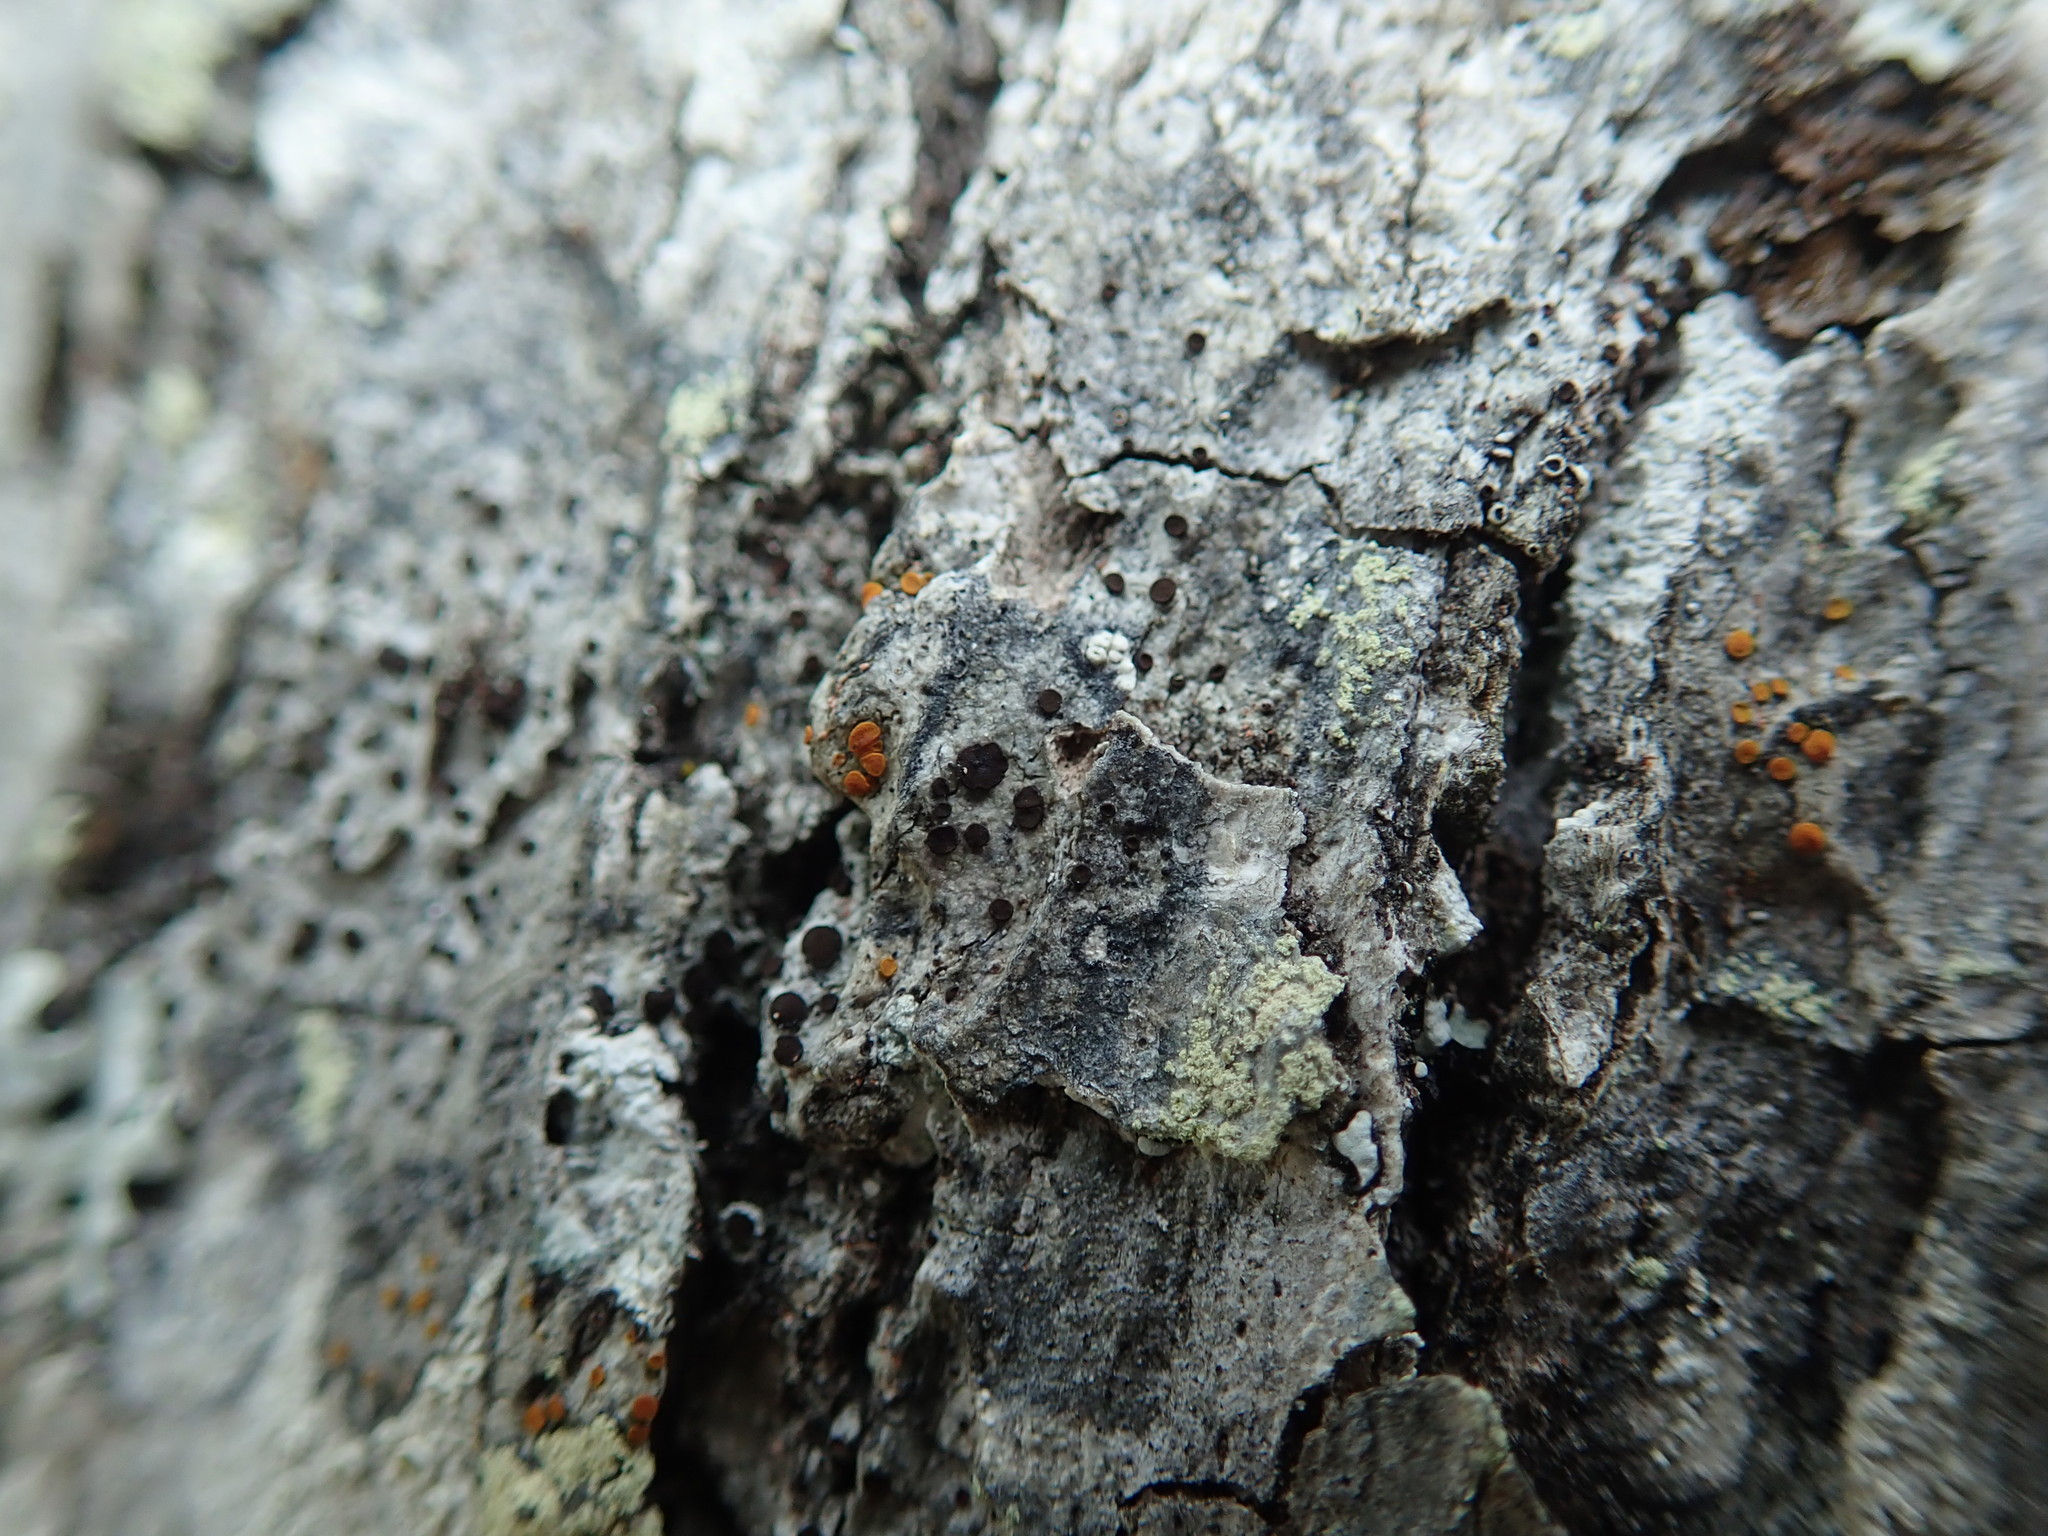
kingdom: Fungi
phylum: Ascomycota
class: Lecanoromycetes
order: Teloschistales
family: Teloschistaceae
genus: Blastenia
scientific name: Blastenia ferruginea
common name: Rusty firedot lichen
